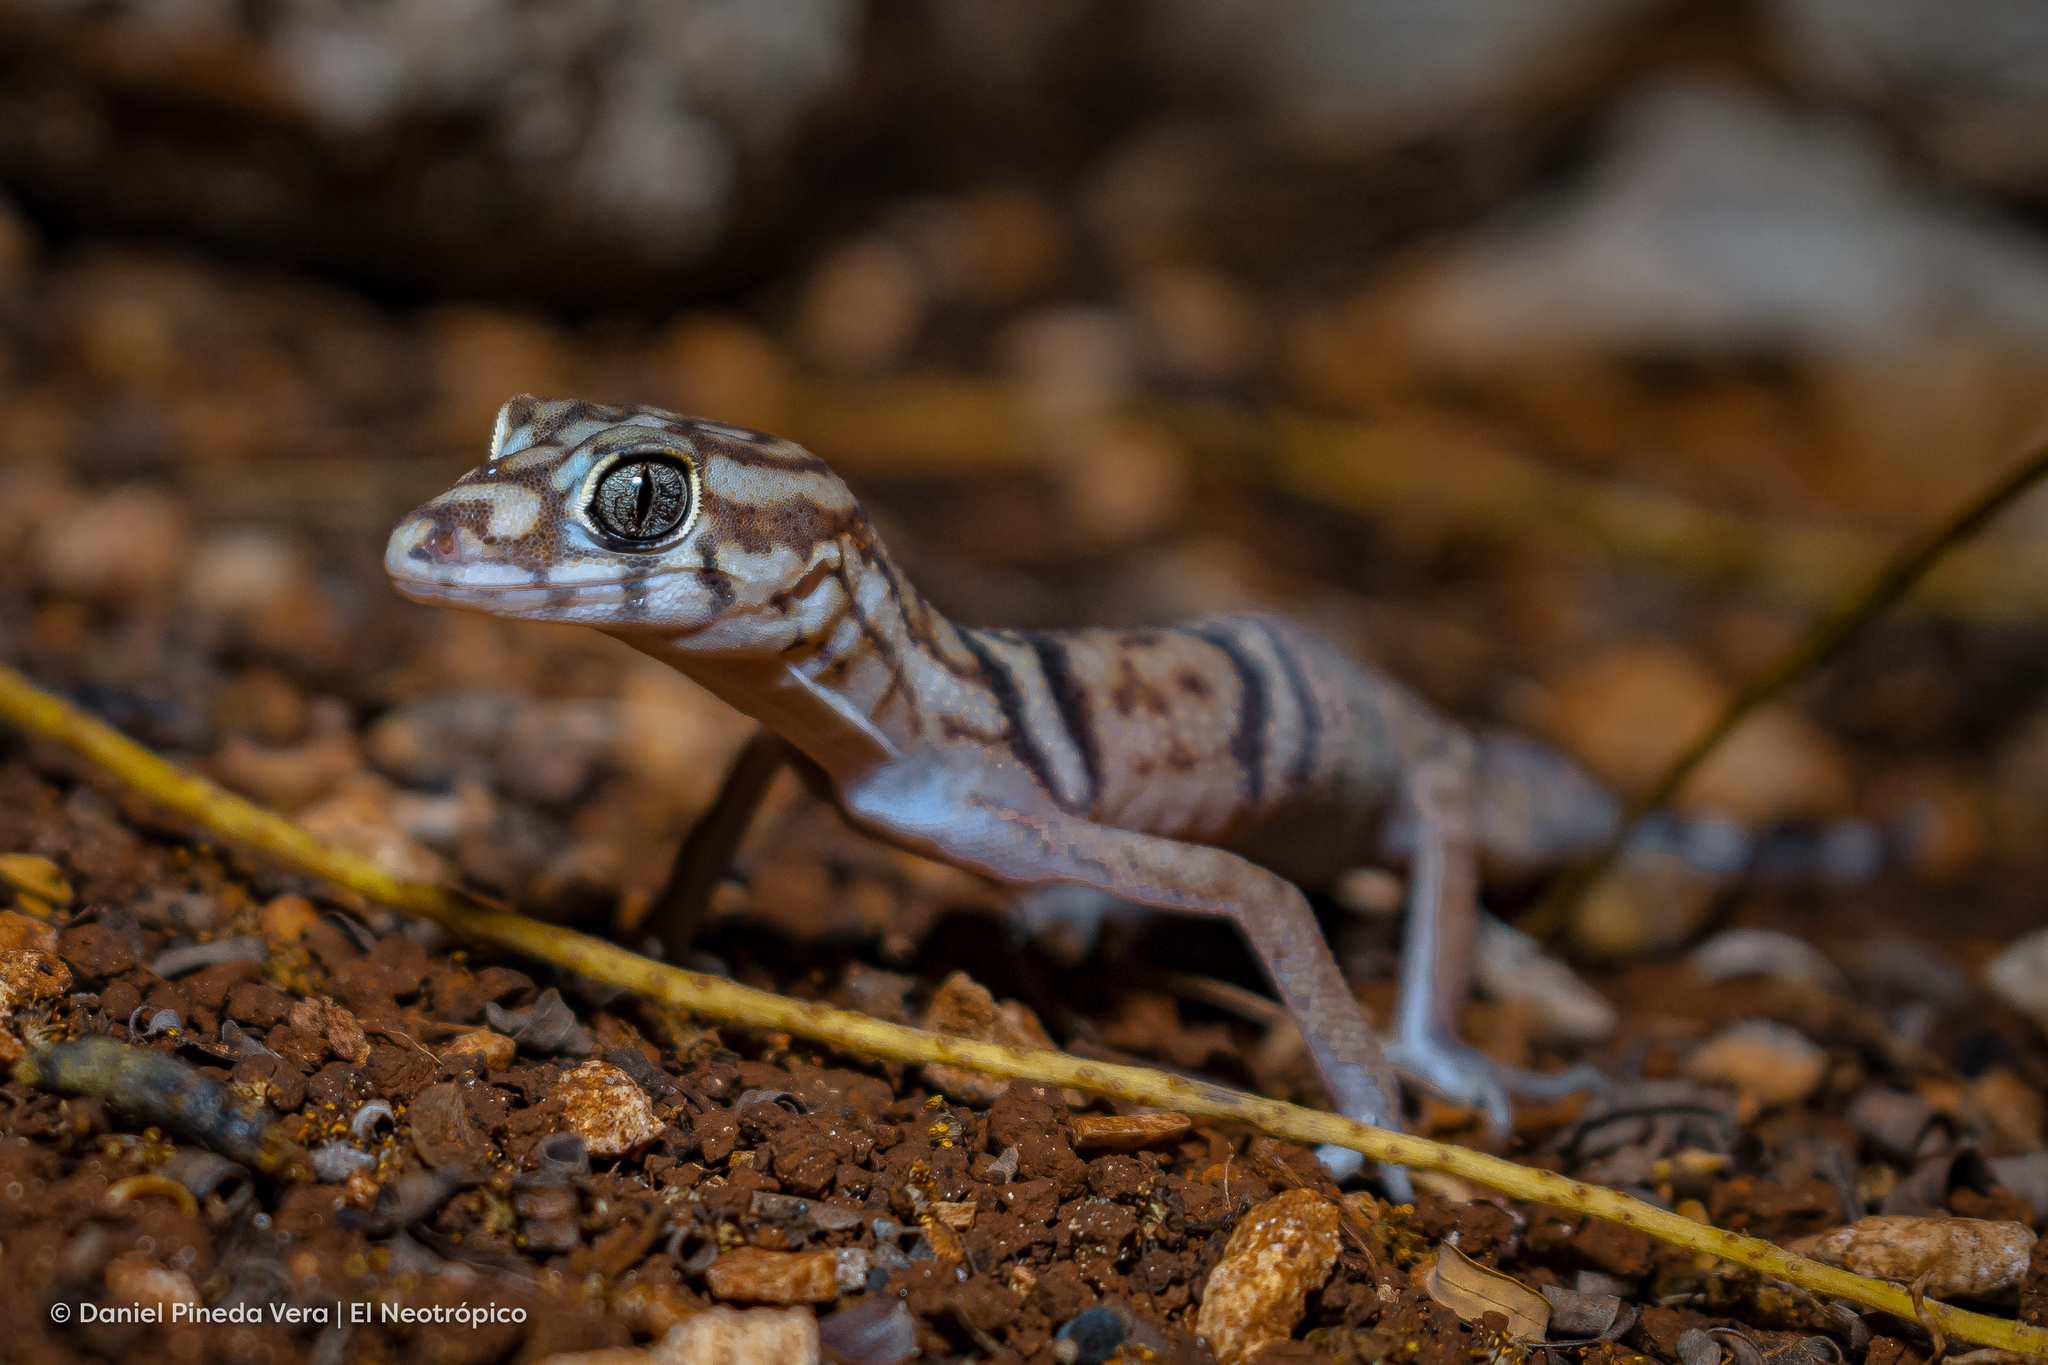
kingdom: Animalia
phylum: Chordata
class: Squamata
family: Eublepharidae
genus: Coleonyx
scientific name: Coleonyx elegans
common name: Yucatan banded gecko
